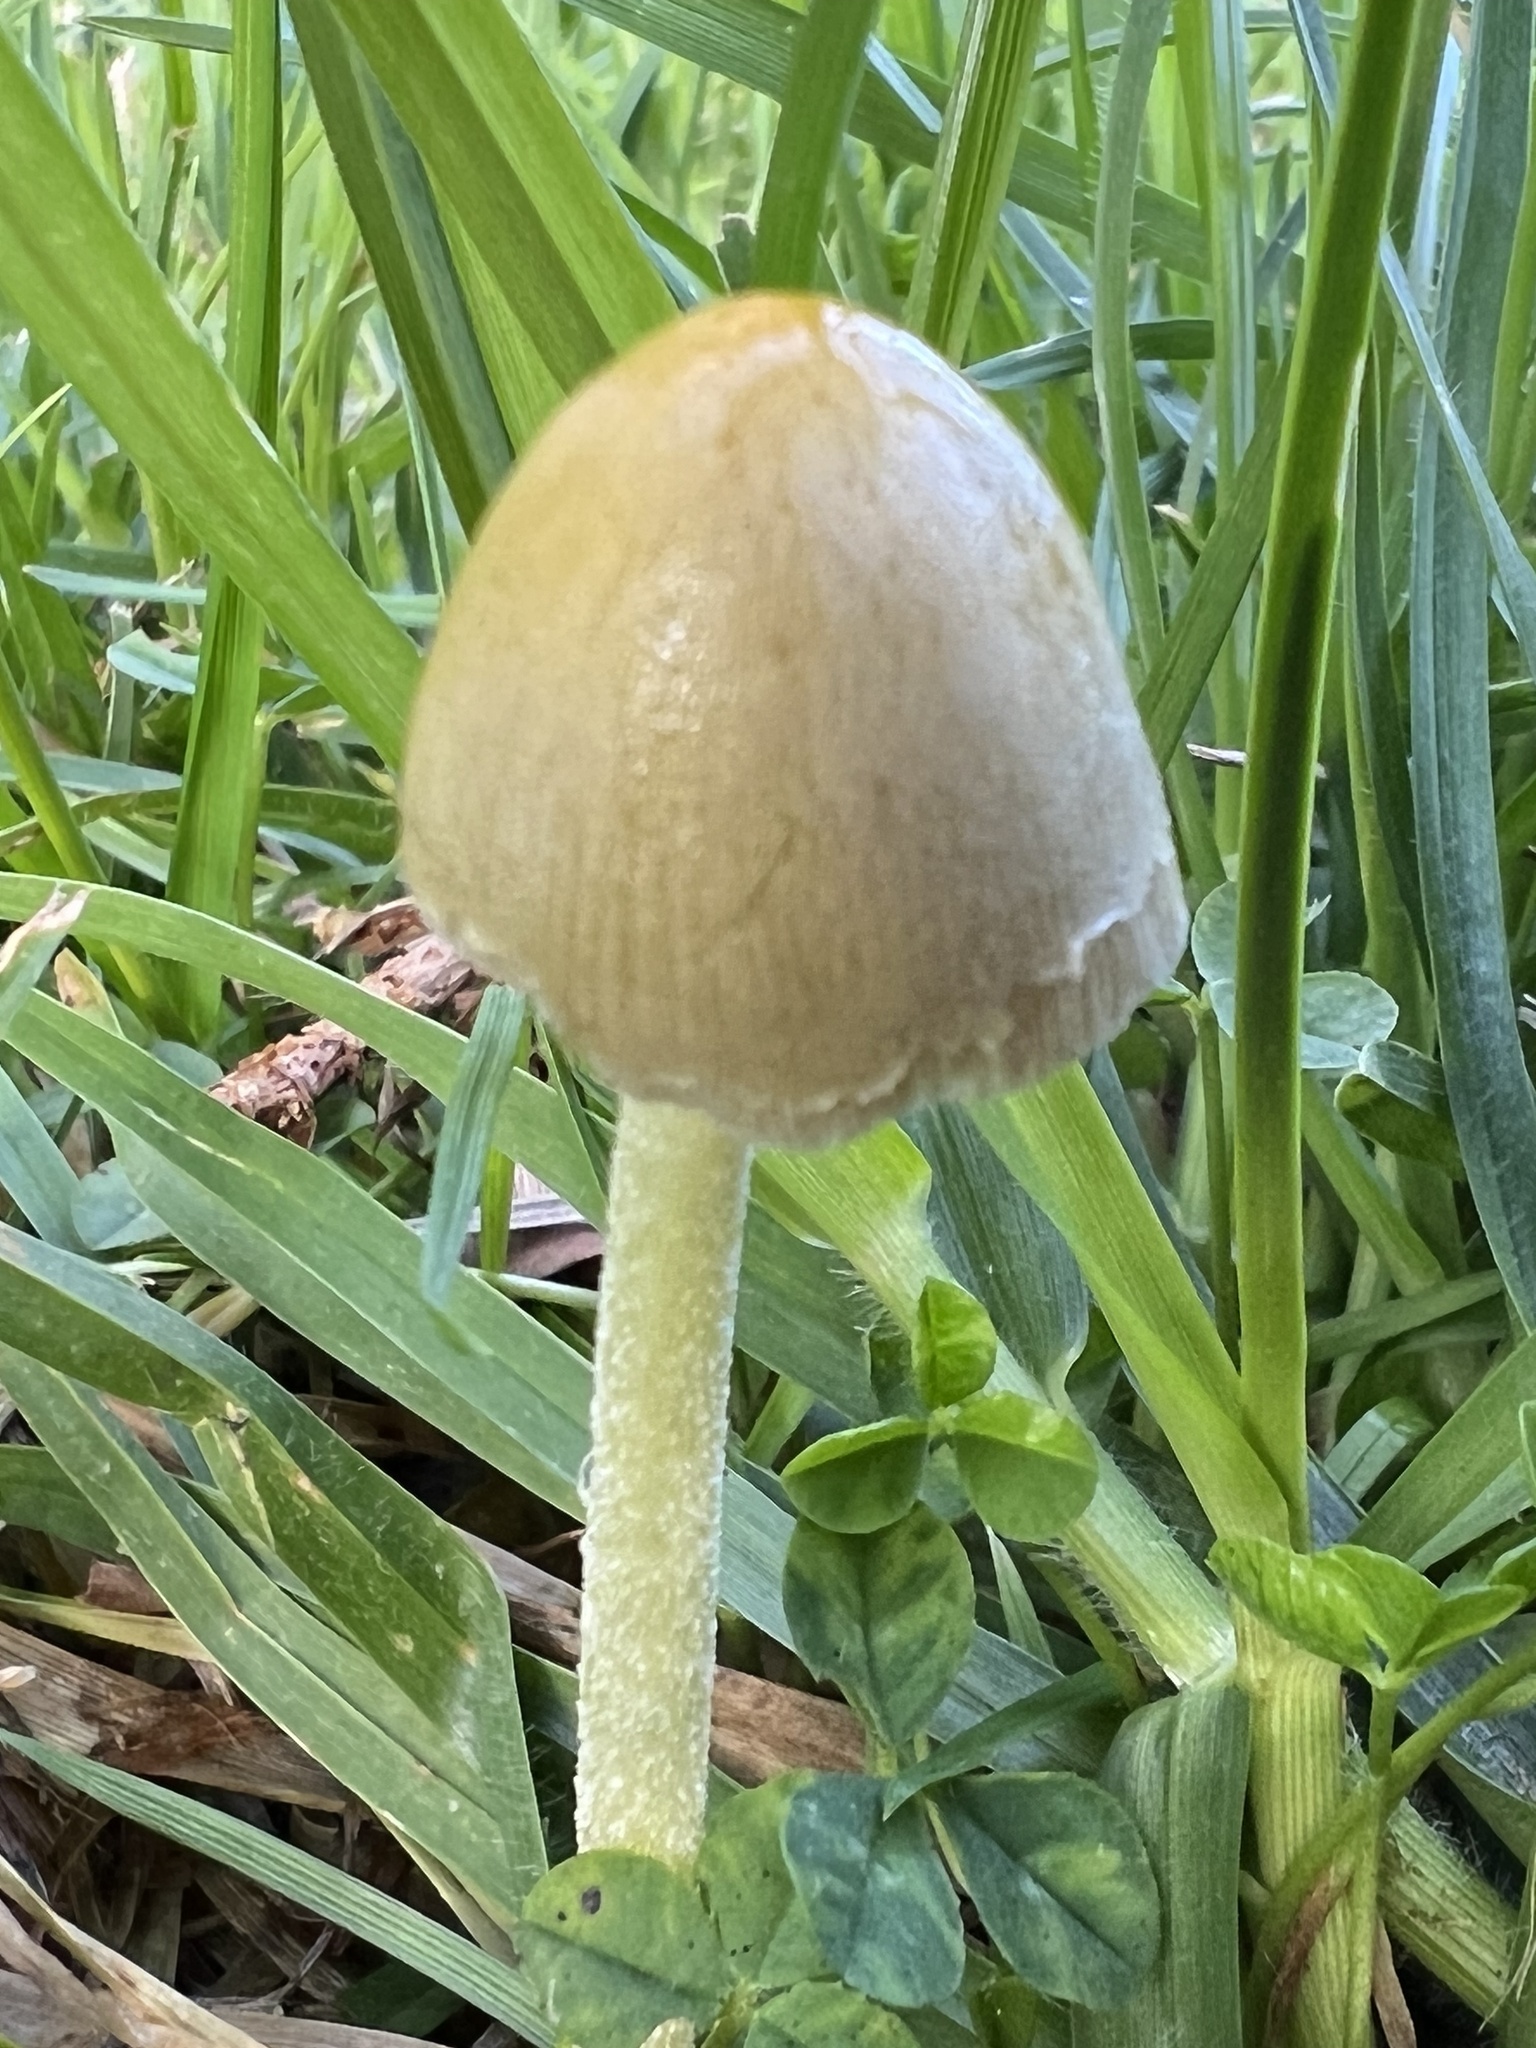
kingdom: Fungi
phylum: Basidiomycota
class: Agaricomycetes
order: Agaricales
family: Bolbitiaceae
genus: Bolbitius
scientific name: Bolbitius titubans
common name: Yellow fieldcap
